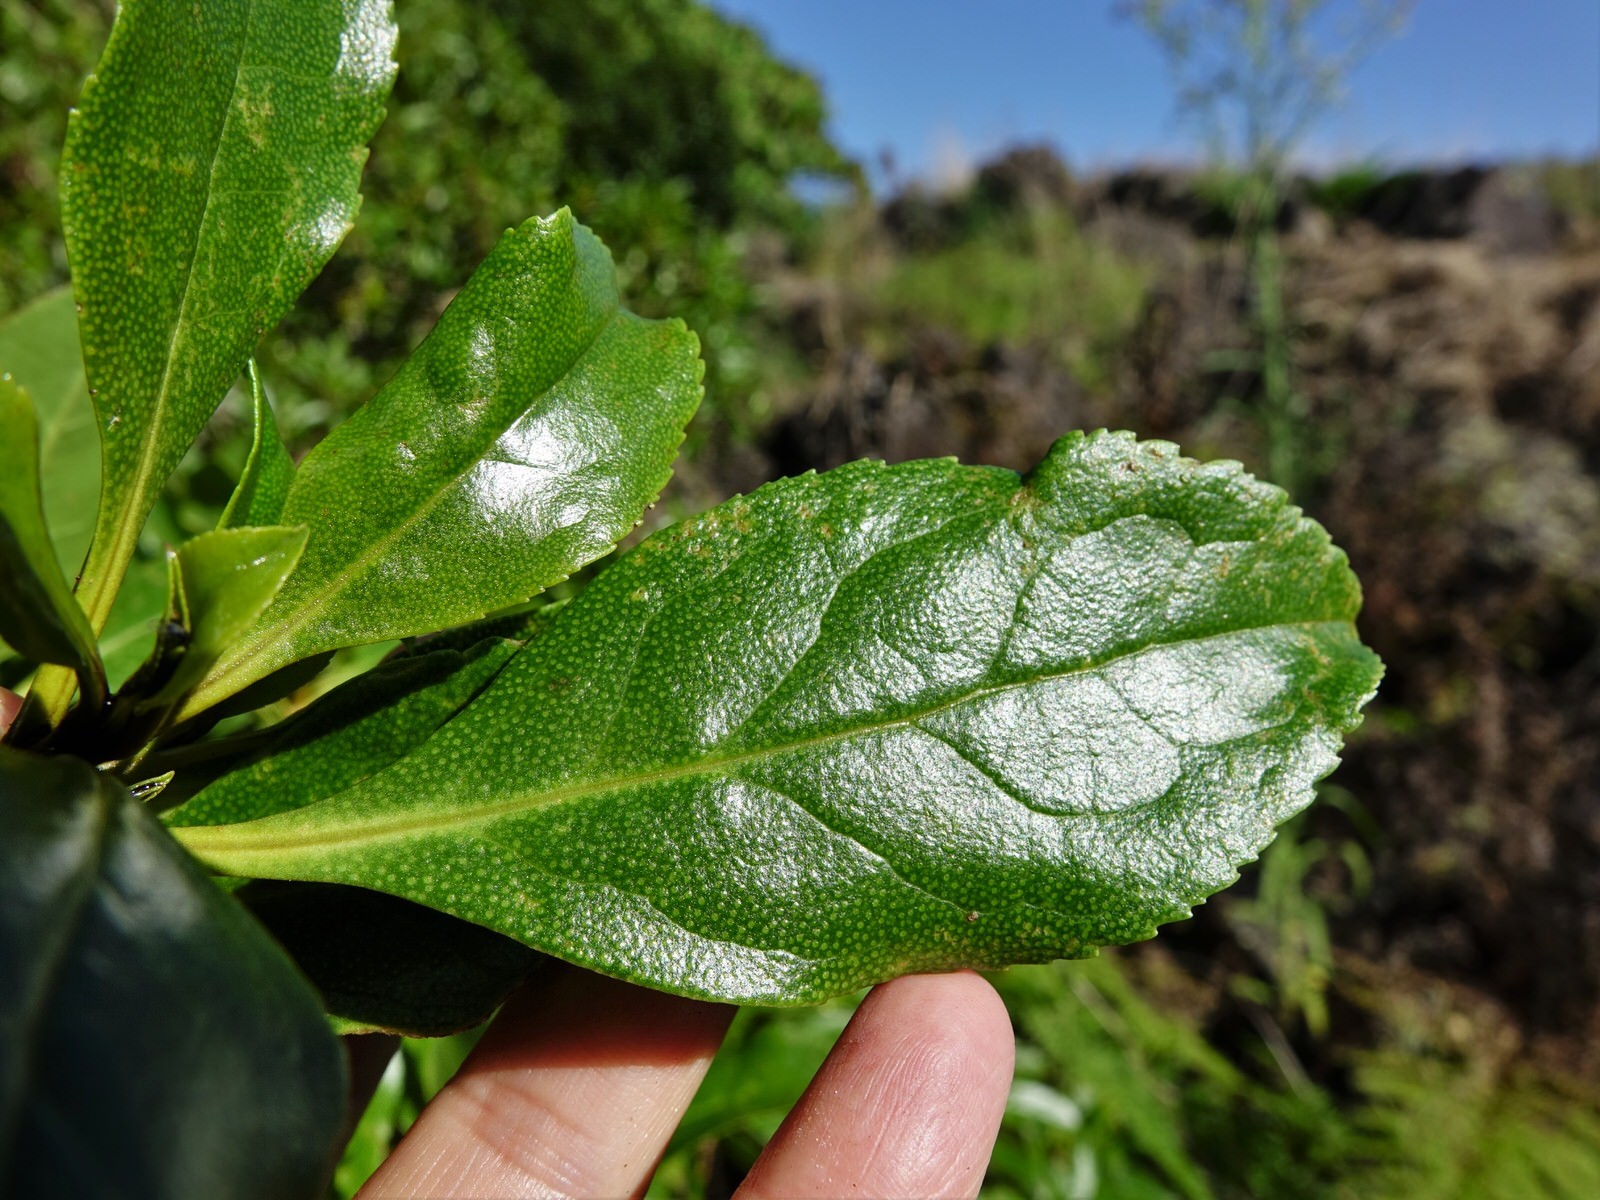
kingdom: Plantae
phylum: Tracheophyta
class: Magnoliopsida
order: Lamiales
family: Scrophulariaceae
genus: Myoporum
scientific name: Myoporum laetum
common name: Ngaio tree
